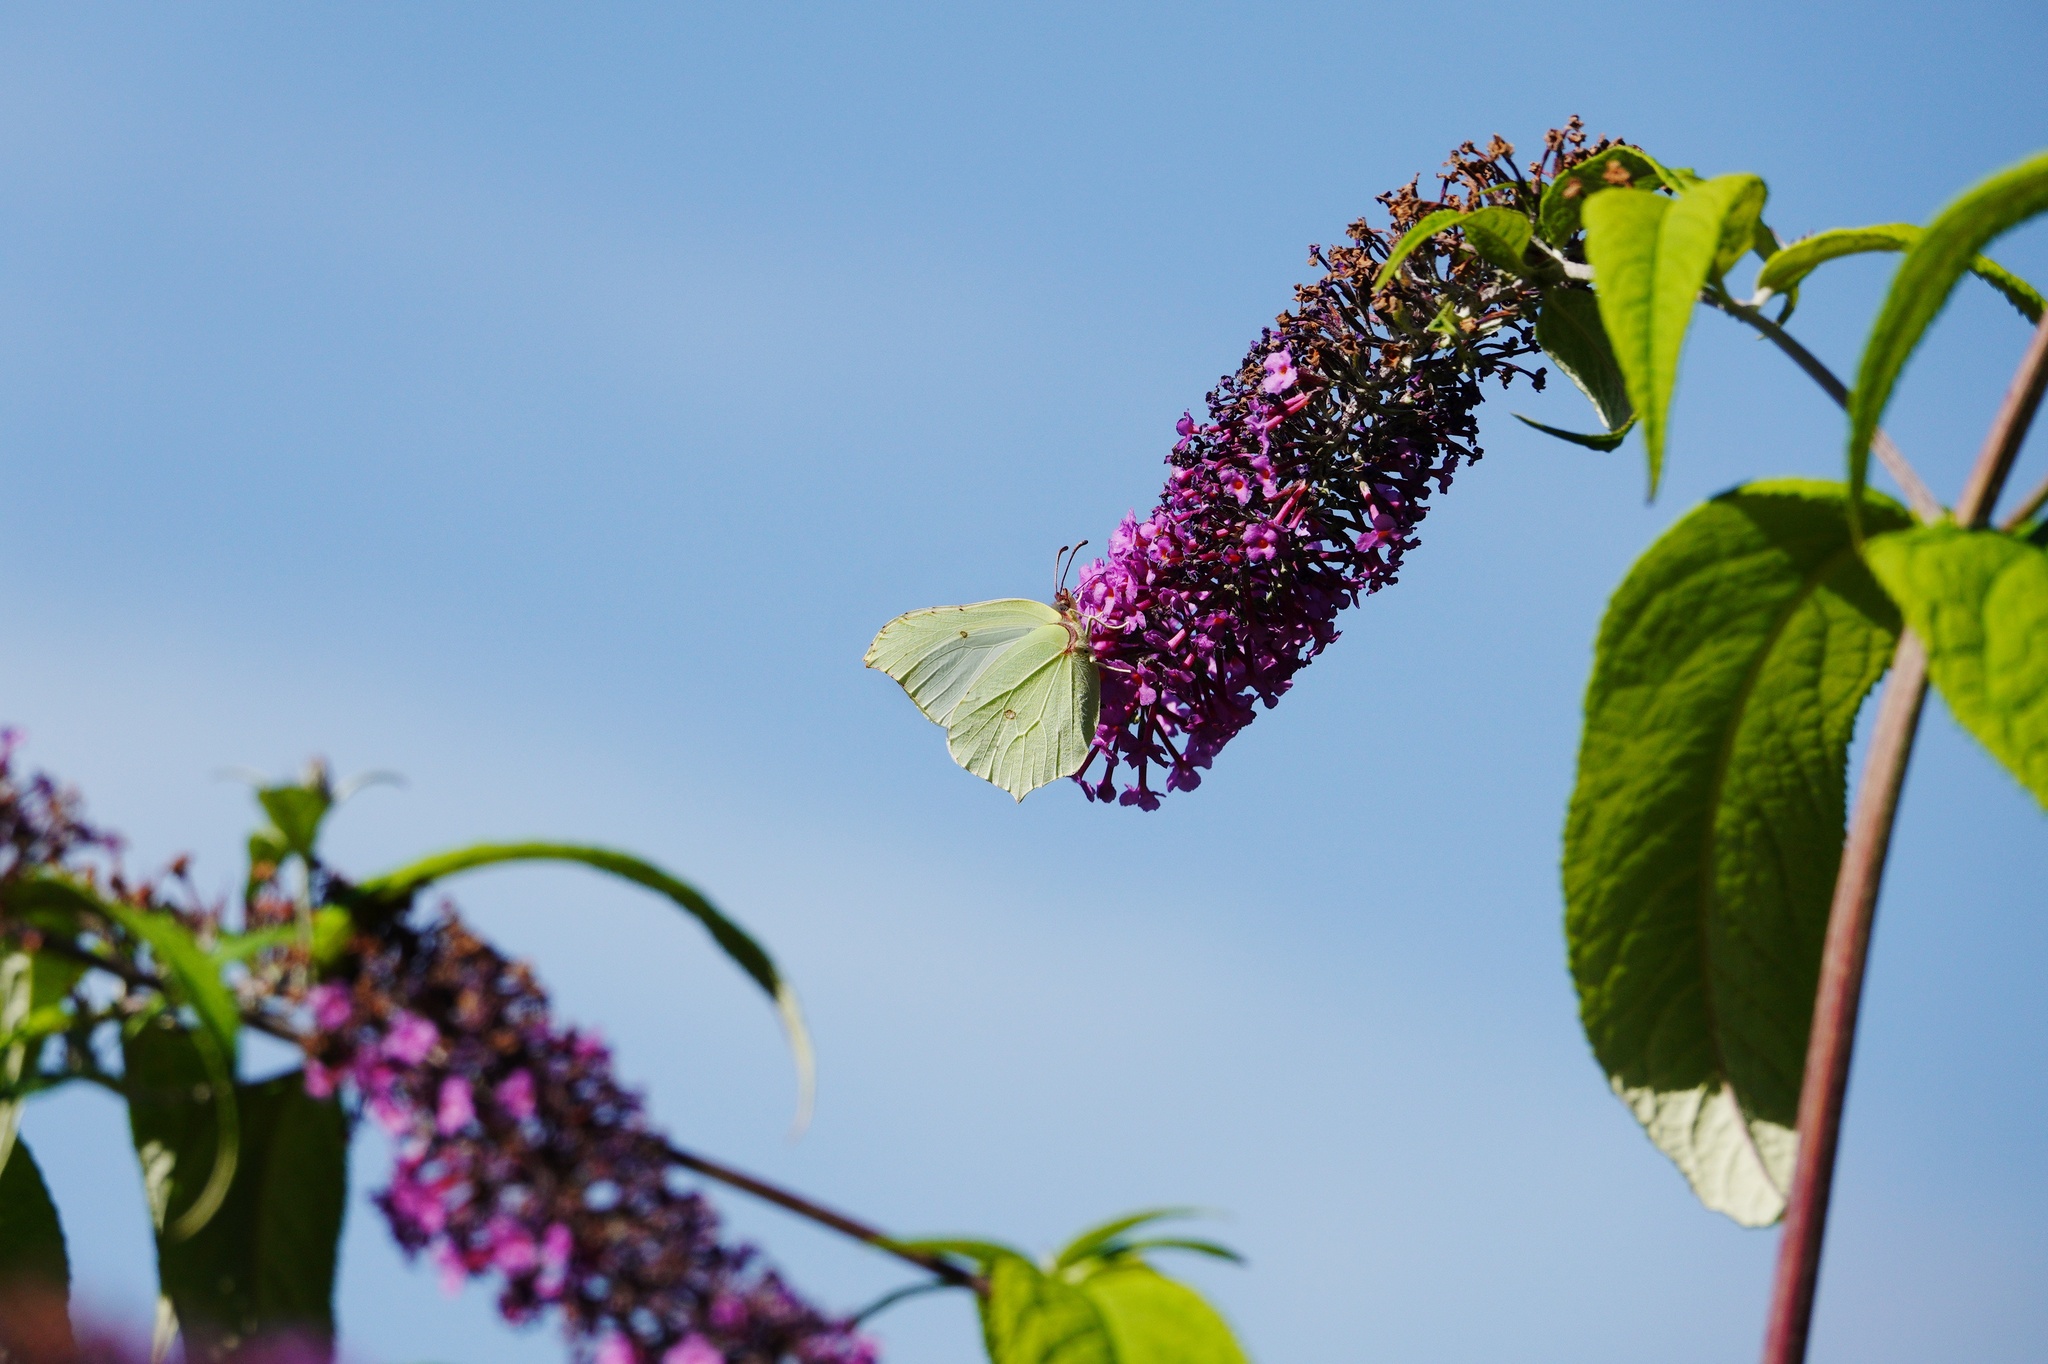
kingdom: Animalia
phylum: Arthropoda
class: Insecta
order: Lepidoptera
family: Pieridae
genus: Gonepteryx
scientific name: Gonepteryx rhamni
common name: Brimstone
